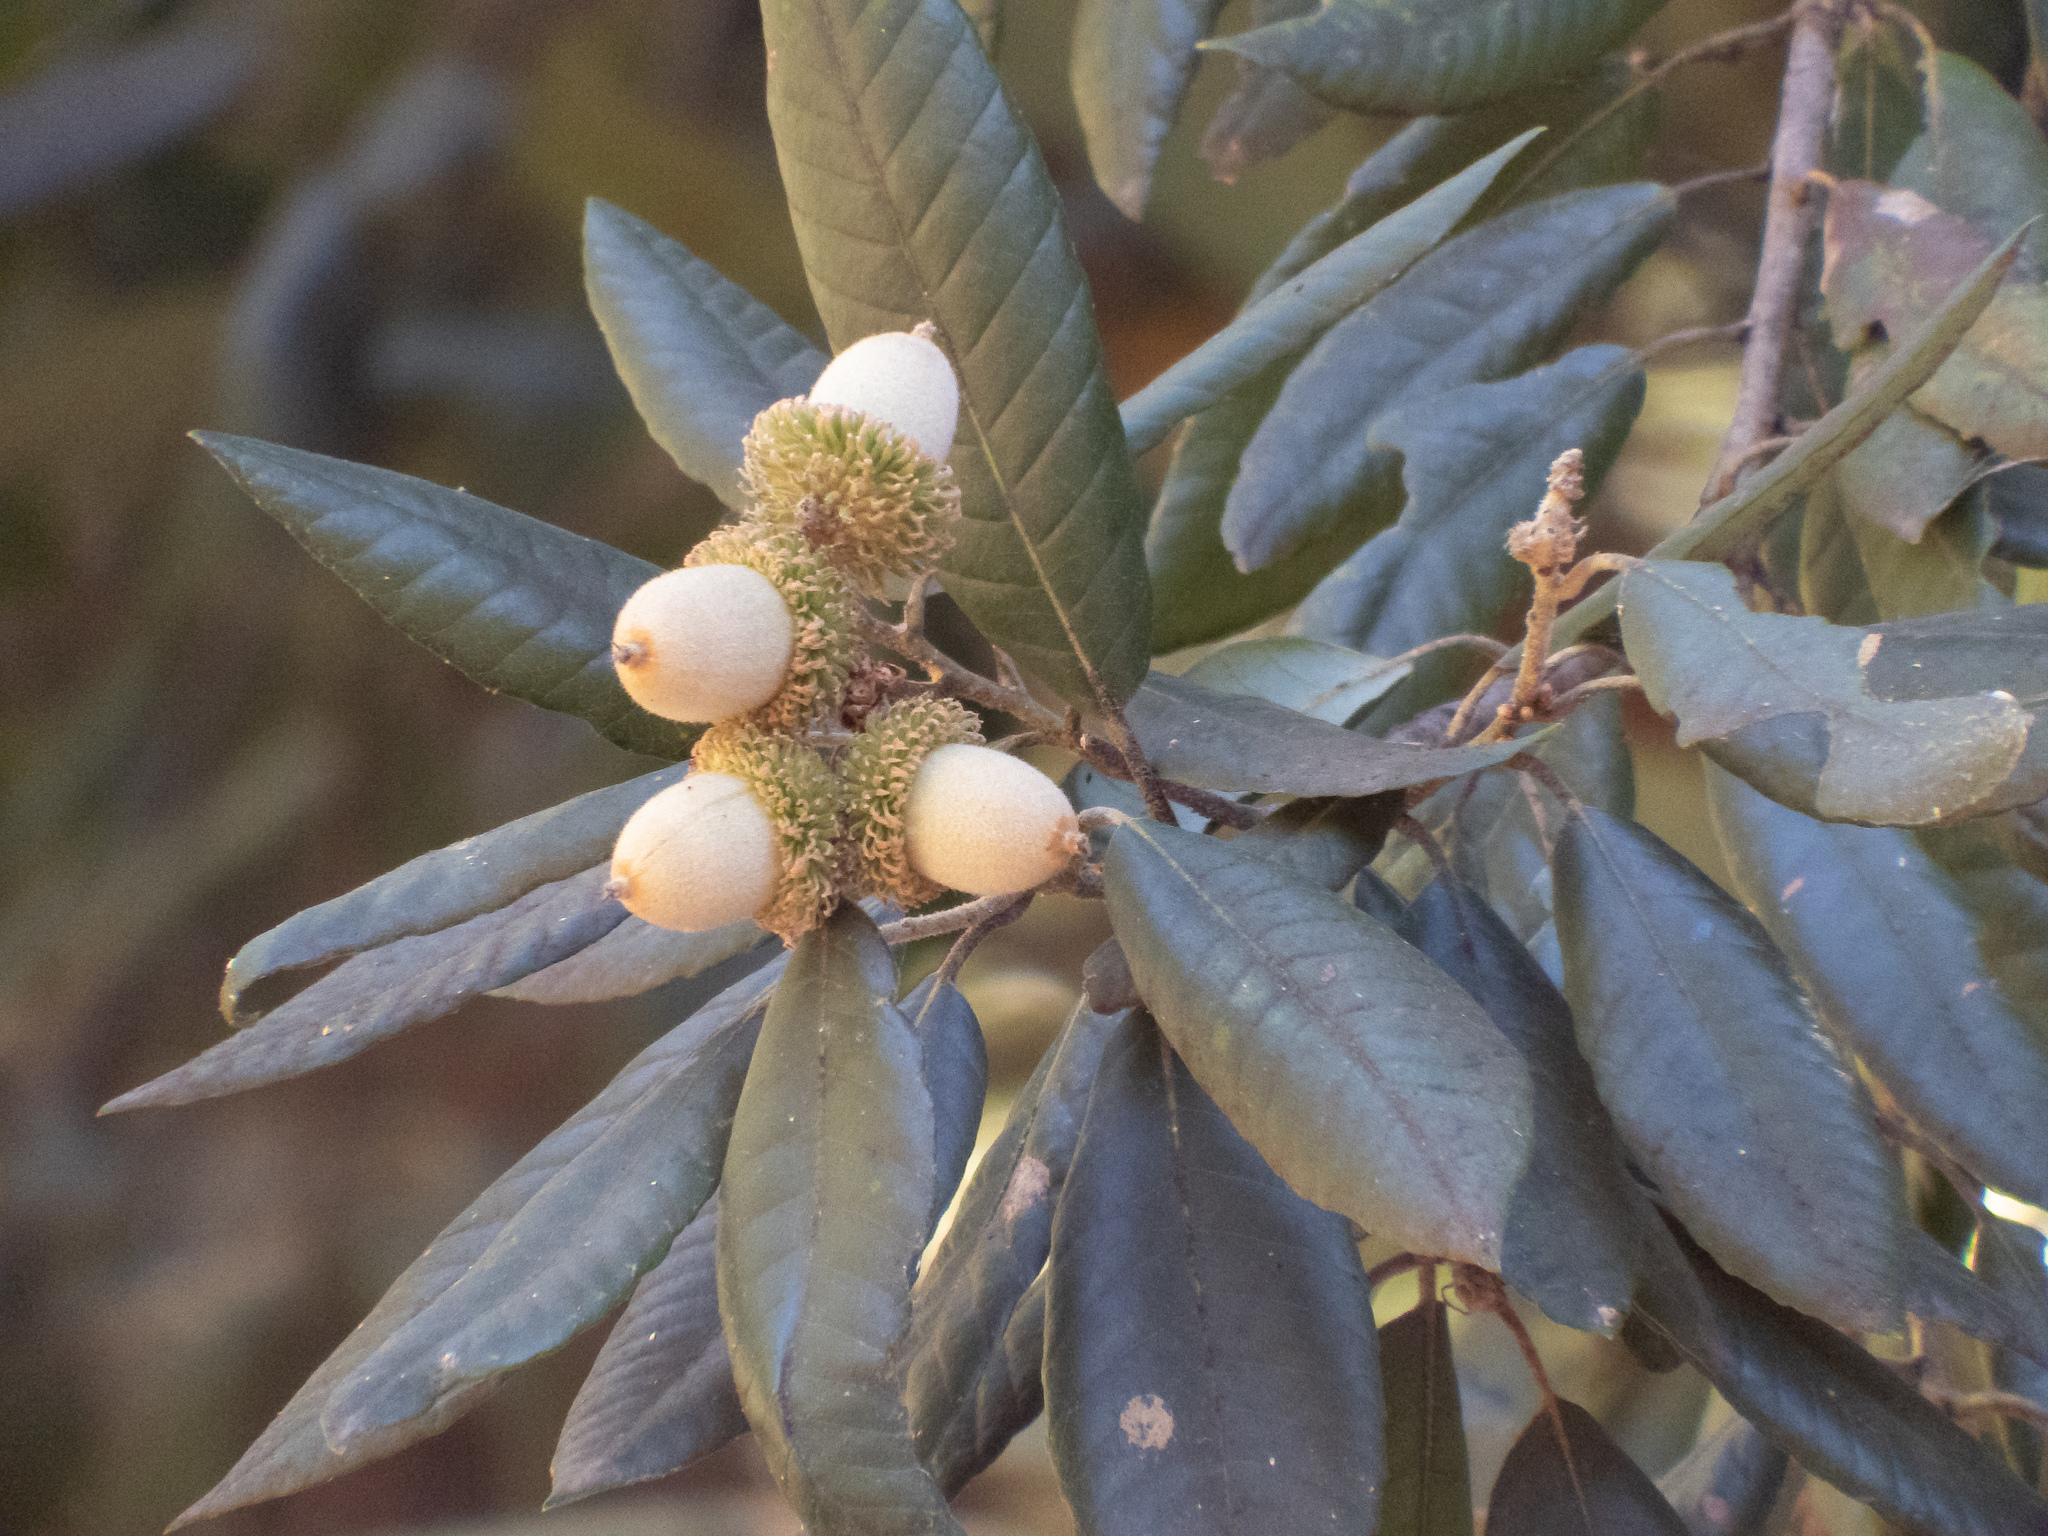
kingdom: Plantae
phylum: Tracheophyta
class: Magnoliopsida
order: Fagales
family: Fagaceae
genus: Notholithocarpus
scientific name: Notholithocarpus densiflorus
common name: Tan bark oak
